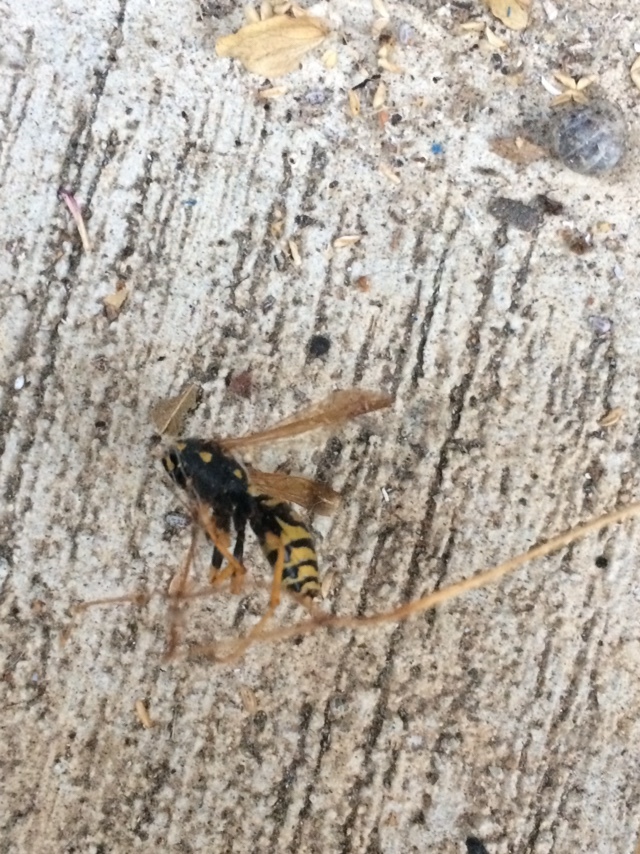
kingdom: Animalia
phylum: Arthropoda
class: Insecta
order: Hymenoptera
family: Eumenidae
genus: Polistes
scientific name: Polistes dominula
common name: Paper wasp
